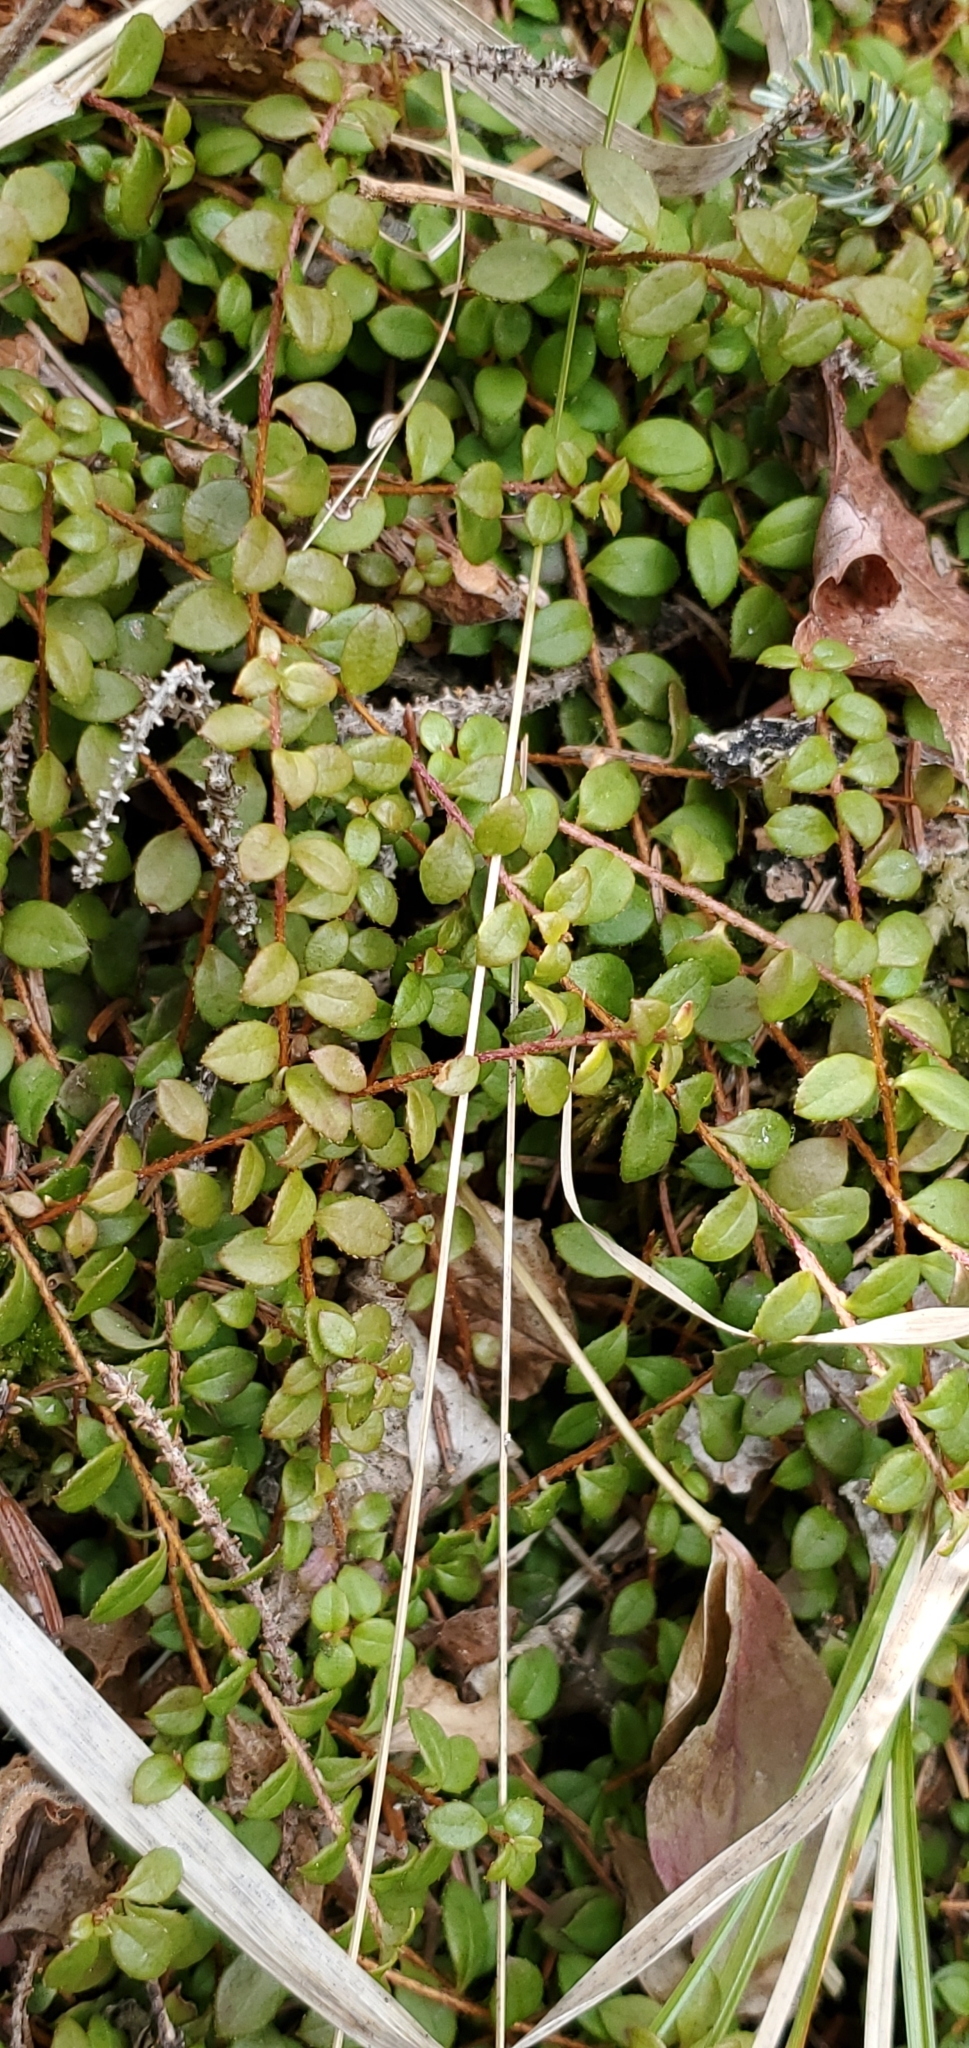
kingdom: Plantae
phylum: Tracheophyta
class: Magnoliopsida
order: Ericales
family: Ericaceae
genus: Gaultheria
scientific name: Gaultheria hispidula
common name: Cancer wintergreen
